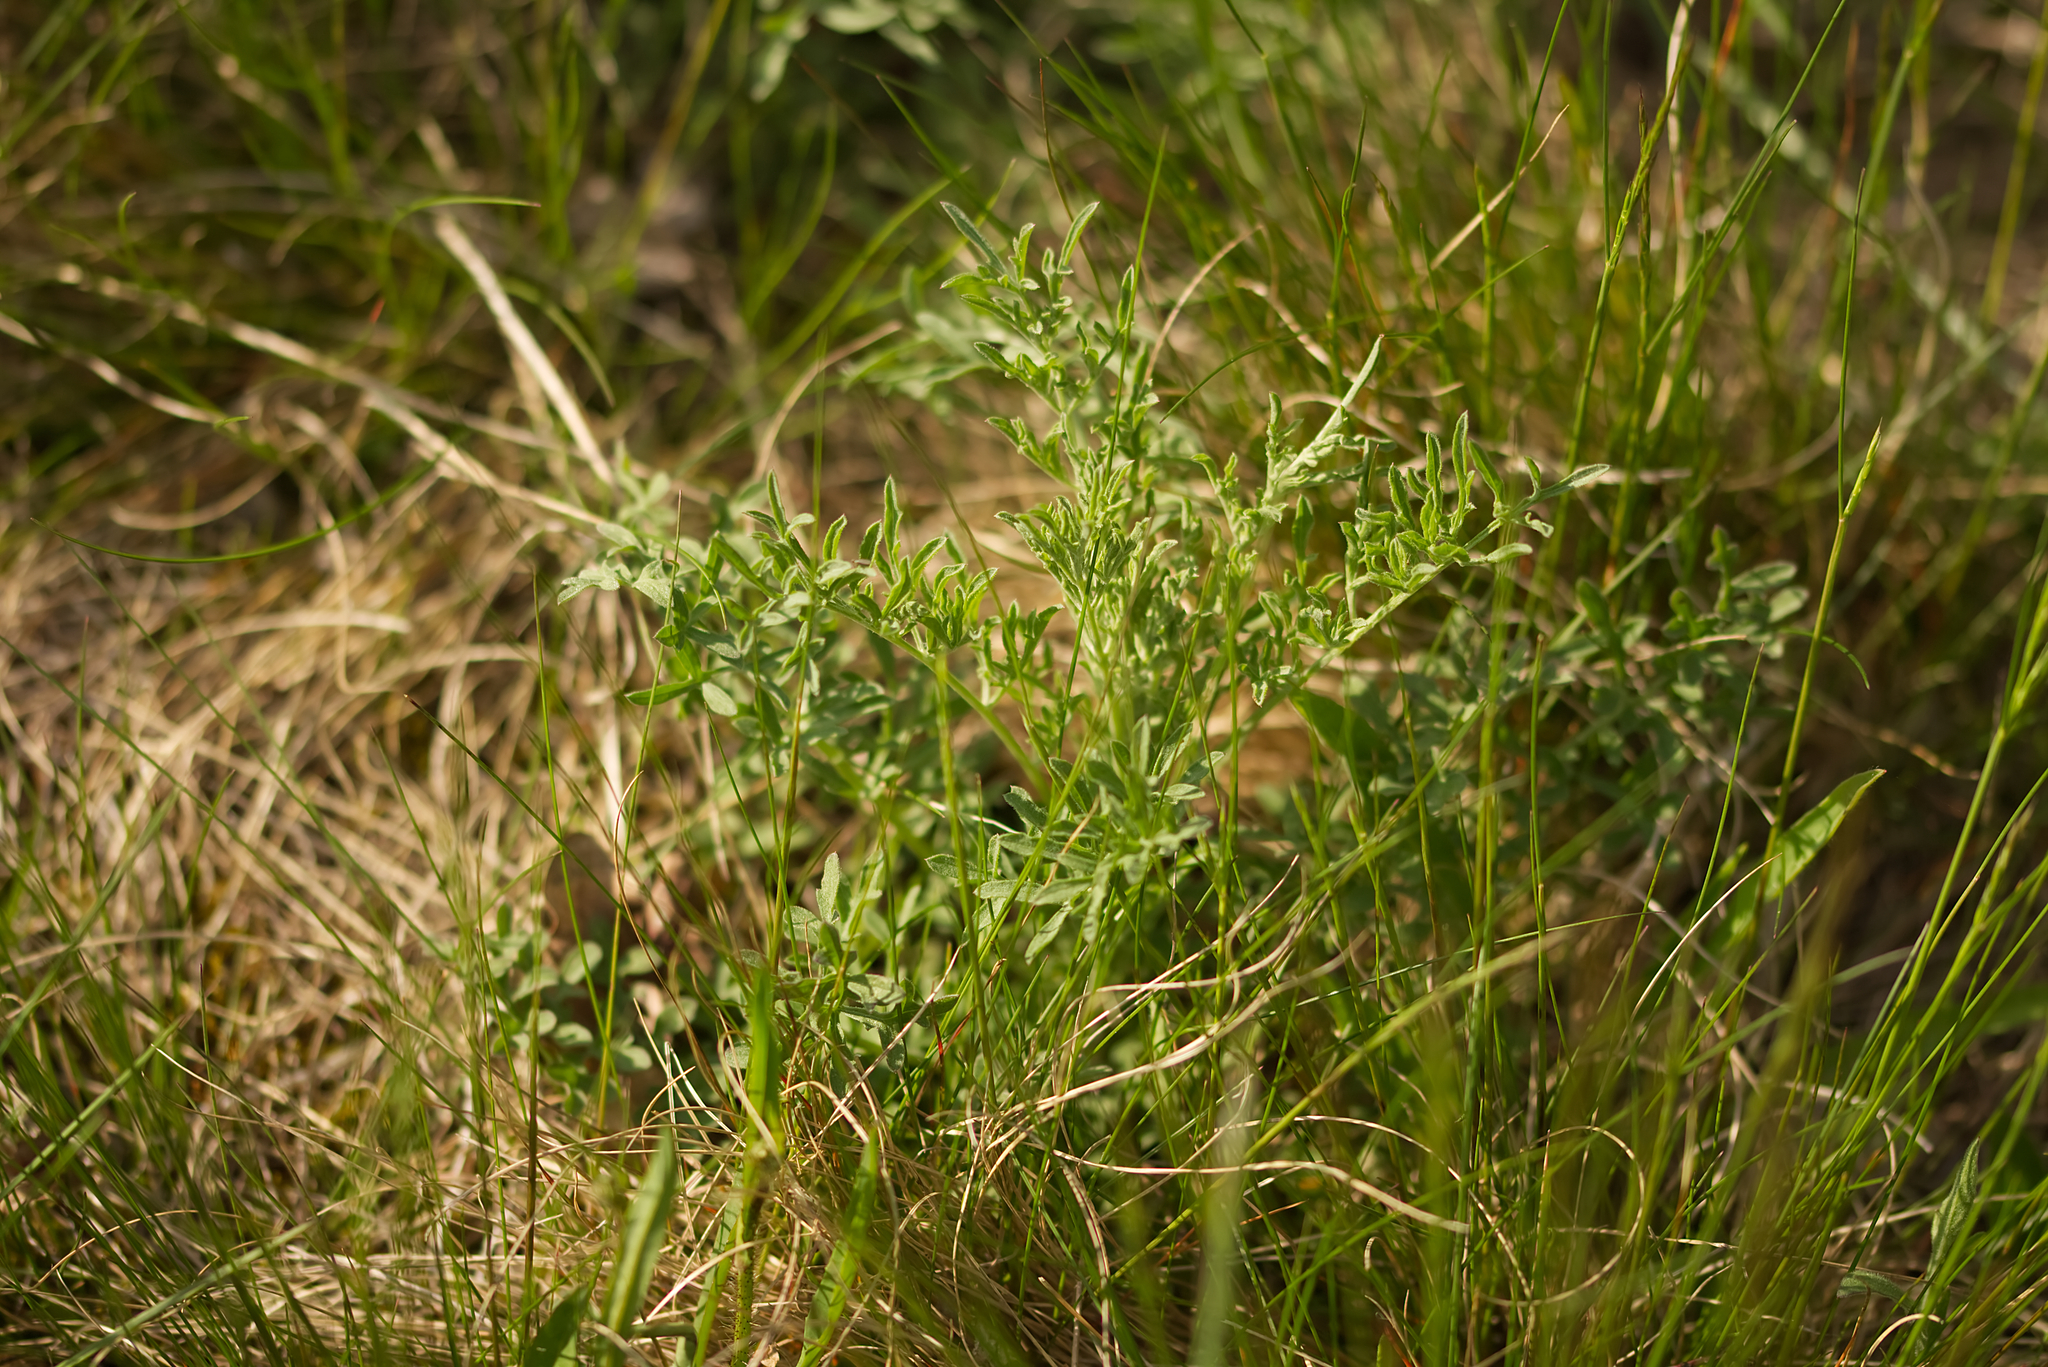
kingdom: Plantae
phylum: Tracheophyta
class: Magnoliopsida
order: Asterales
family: Asteraceae
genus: Centaurea
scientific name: Centaurea stoebe
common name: Spotted knapweed
